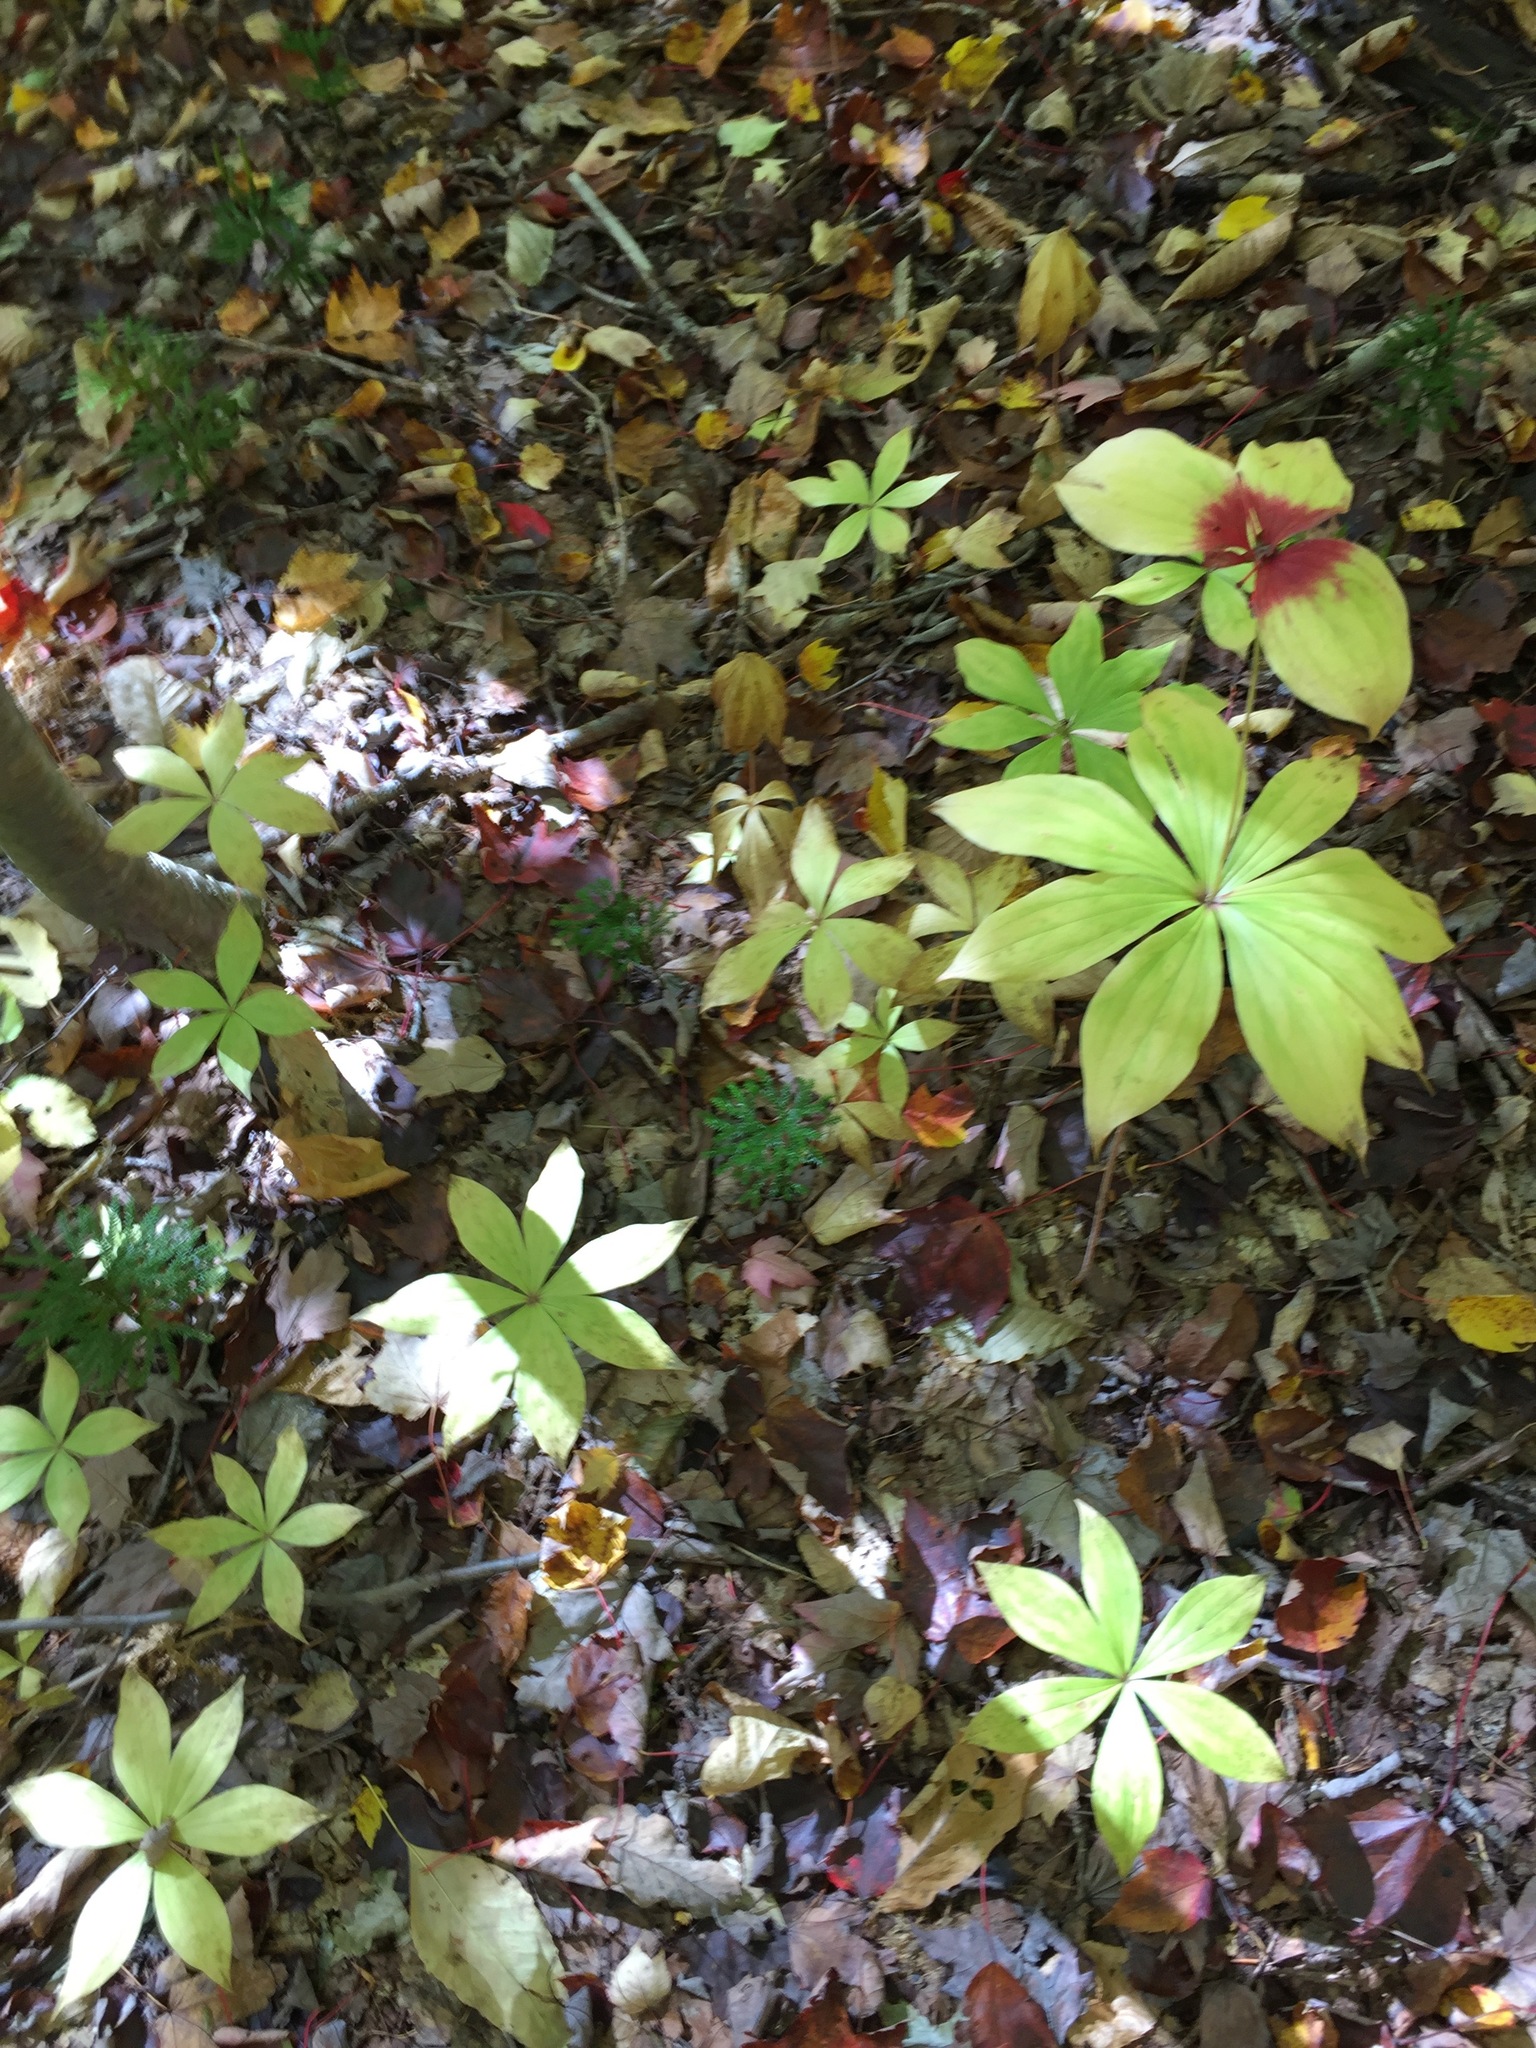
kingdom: Plantae
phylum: Tracheophyta
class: Liliopsida
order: Liliales
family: Liliaceae
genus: Medeola
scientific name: Medeola virginiana
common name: Indian cucumber-root
